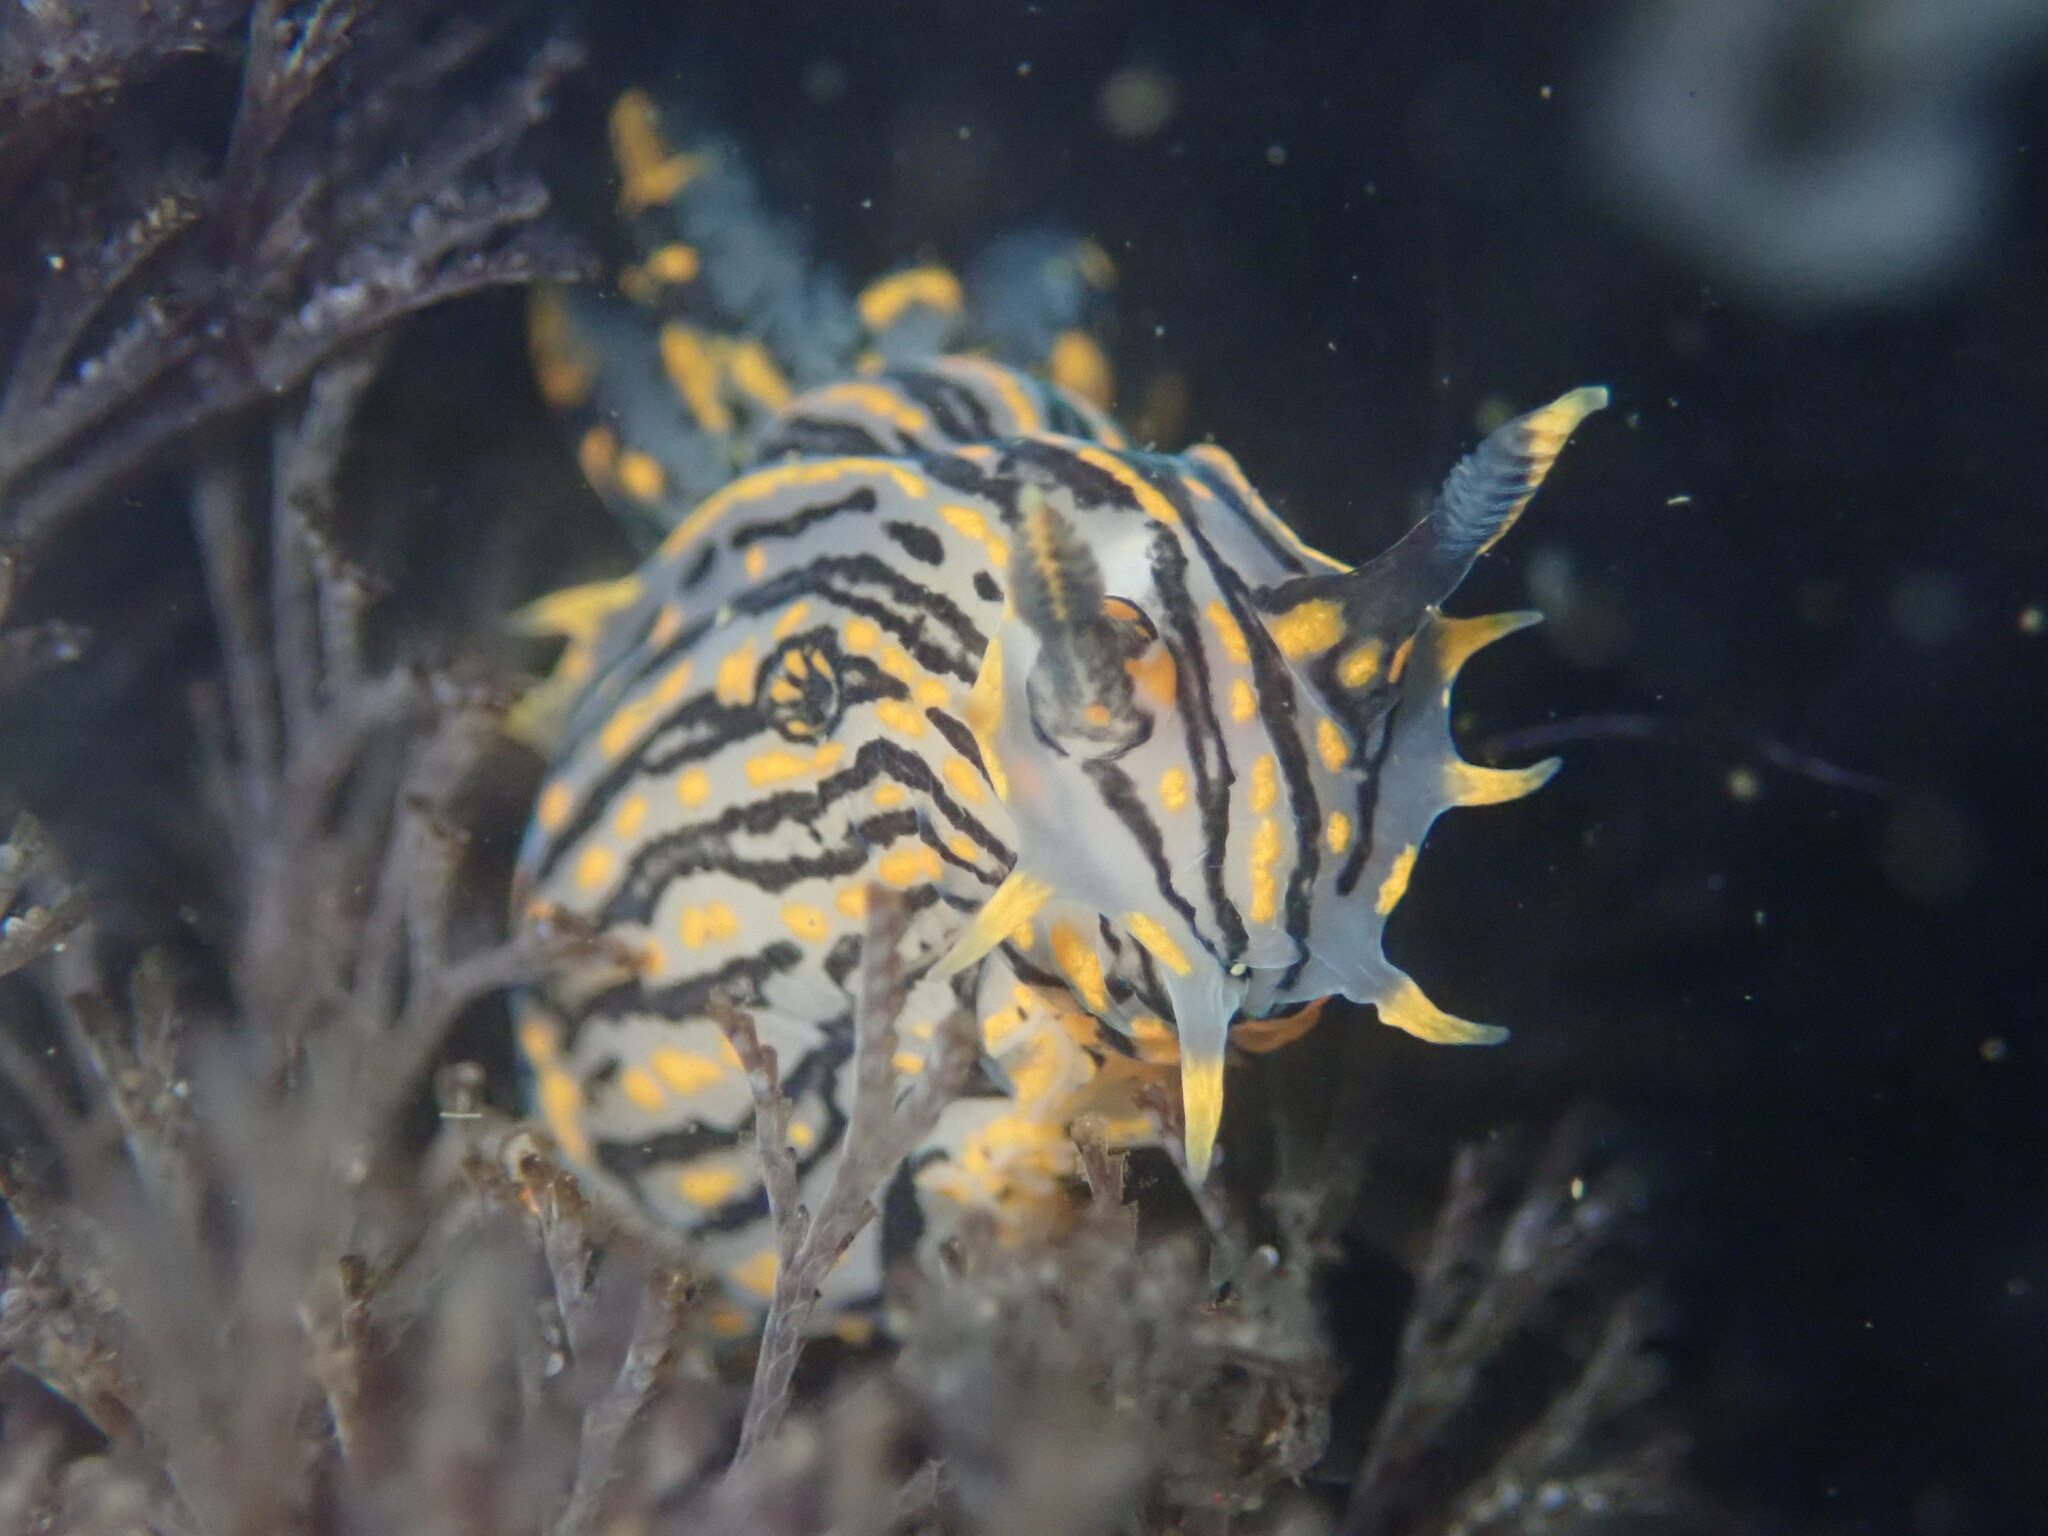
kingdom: Animalia
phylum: Mollusca
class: Gastropoda
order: Nudibranchia
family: Polyceridae
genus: Polycera
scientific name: Polycera atra
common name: Orange-spike polycera
